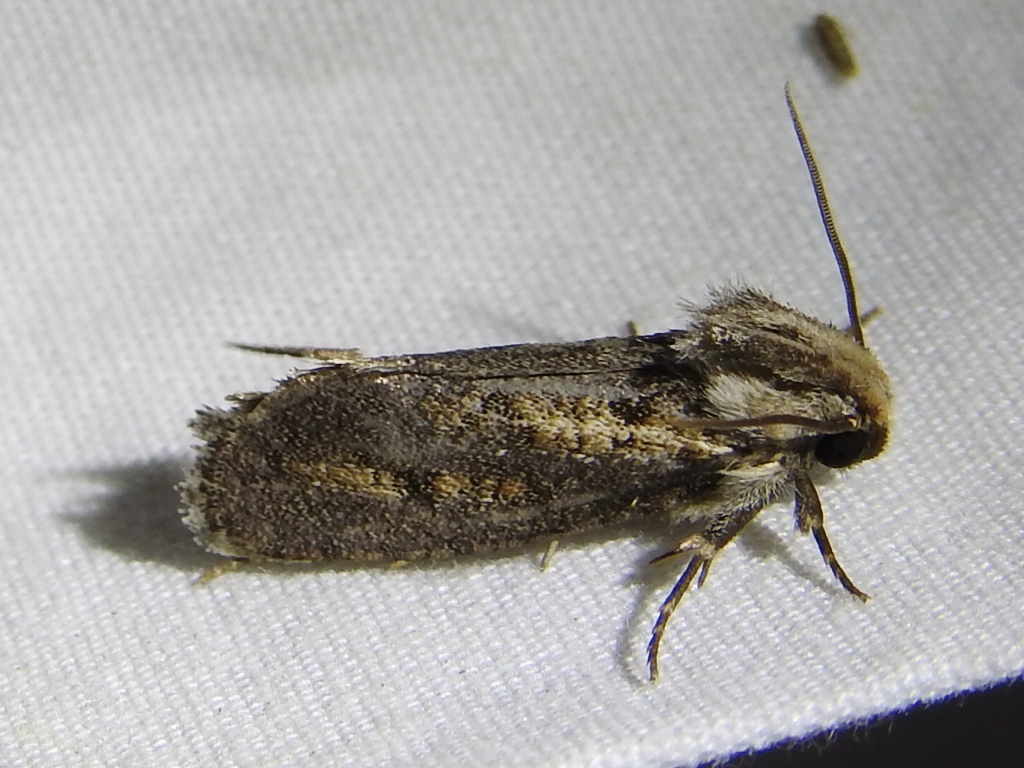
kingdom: Animalia
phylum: Arthropoda
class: Insecta
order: Lepidoptera
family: Tineidae
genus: Acrolophus
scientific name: Acrolophus popeanella
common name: Clemens' grass tubeworm moth
